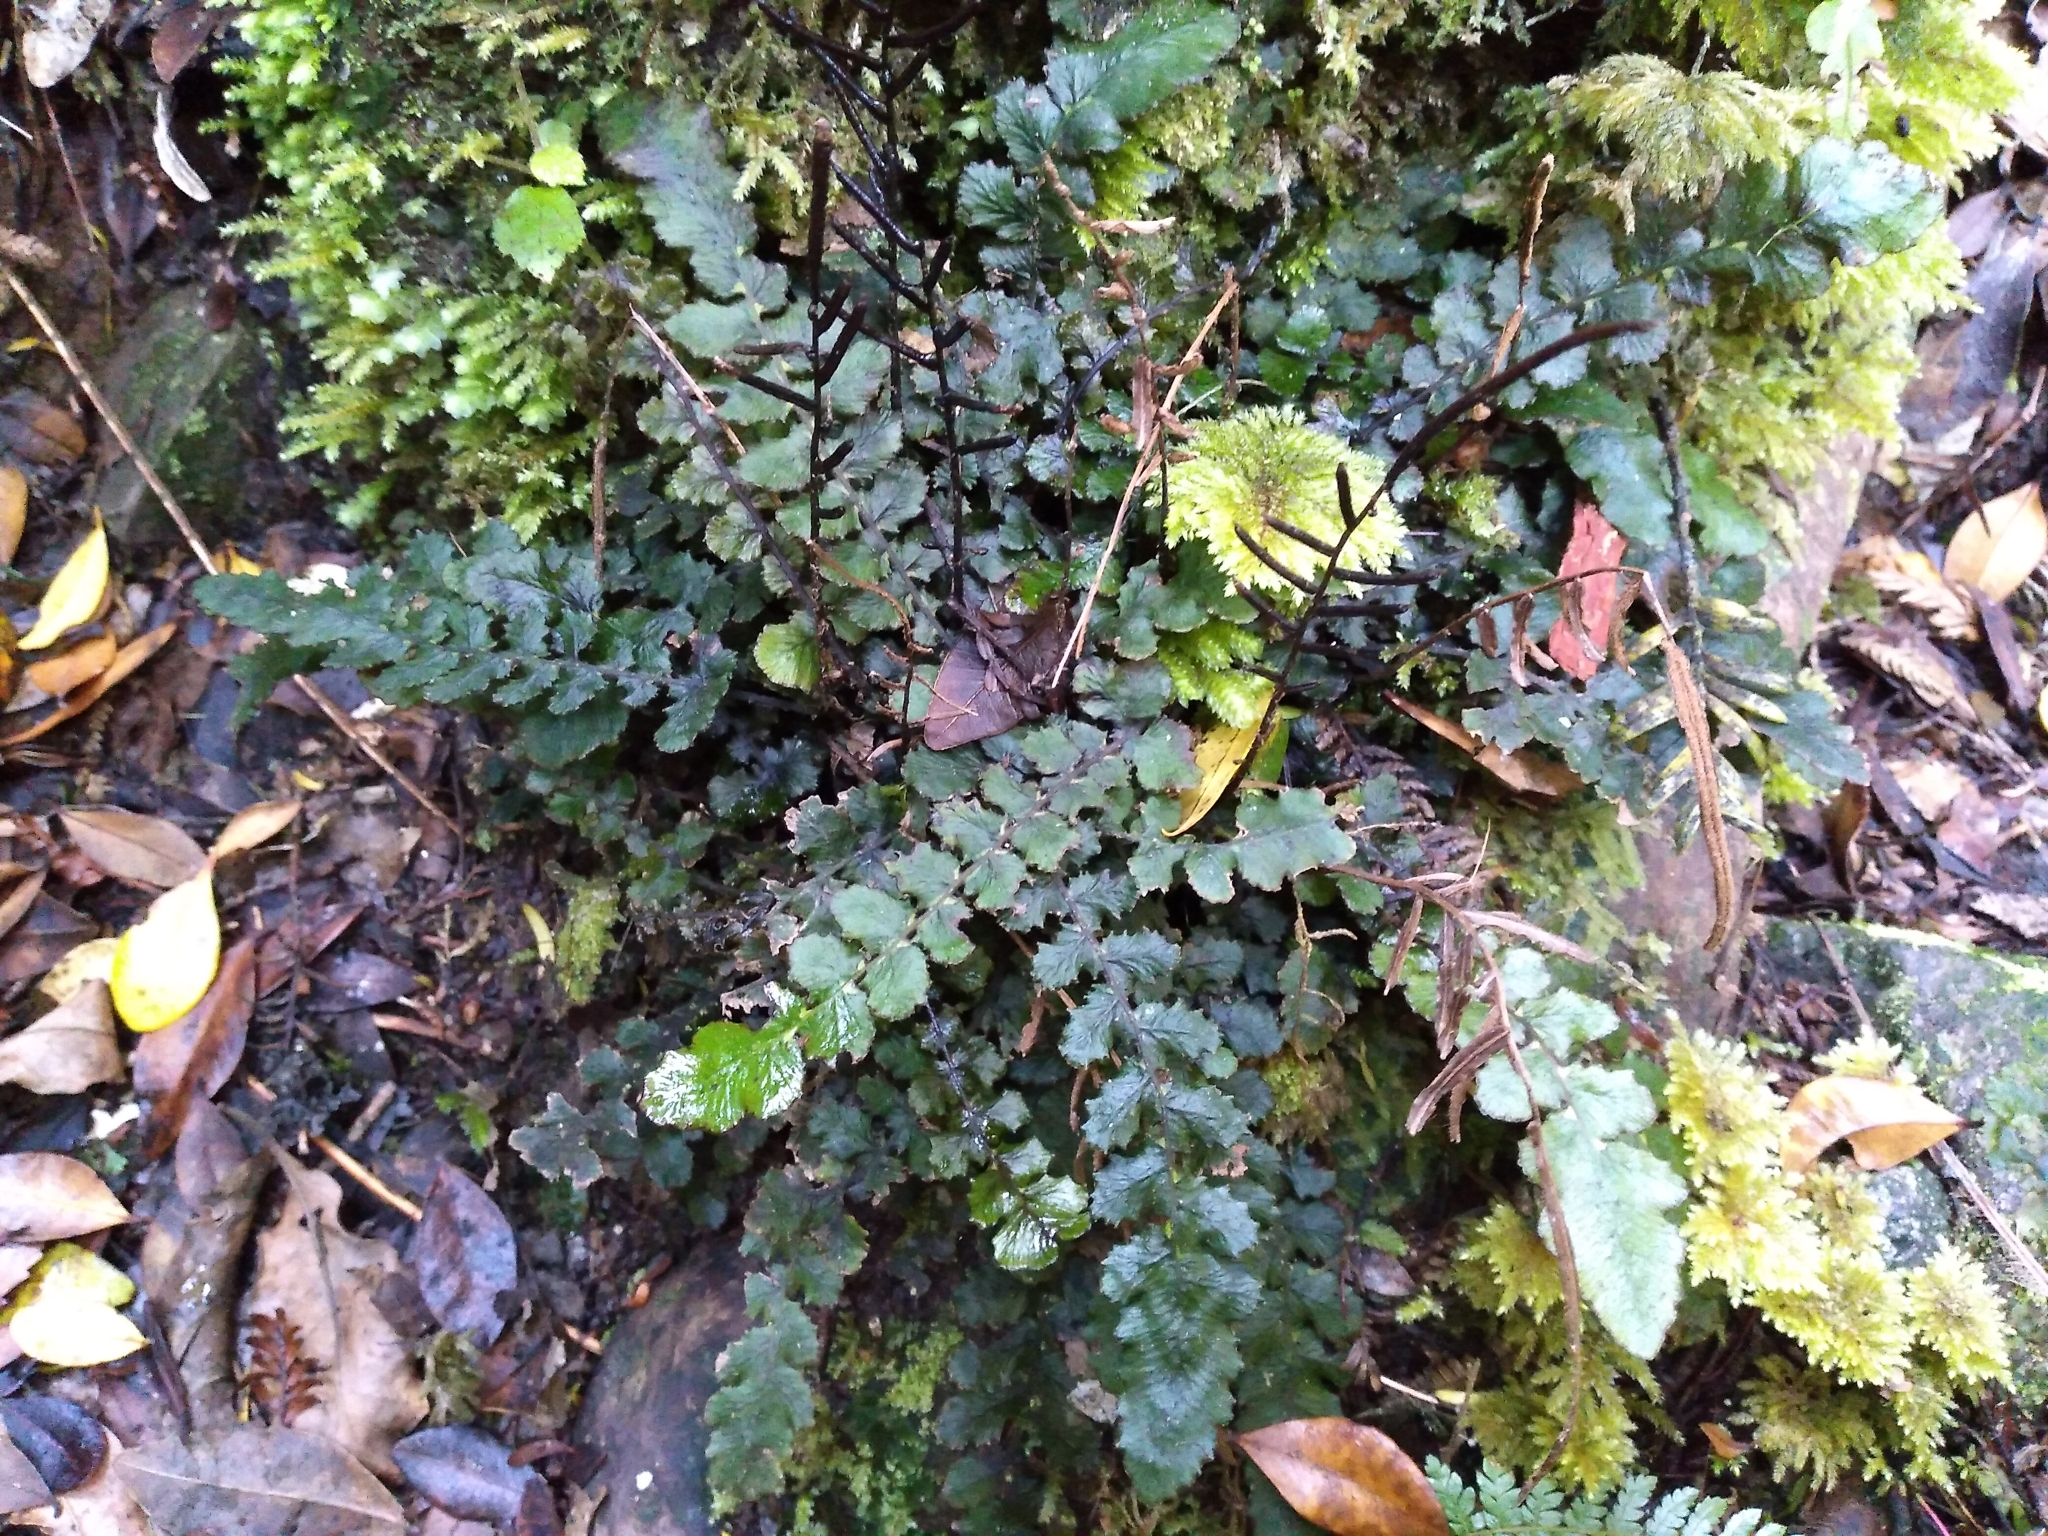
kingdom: Plantae
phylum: Tracheophyta
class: Polypodiopsida
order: Polypodiales
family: Blechnaceae
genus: Cranfillia
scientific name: Cranfillia nigra
